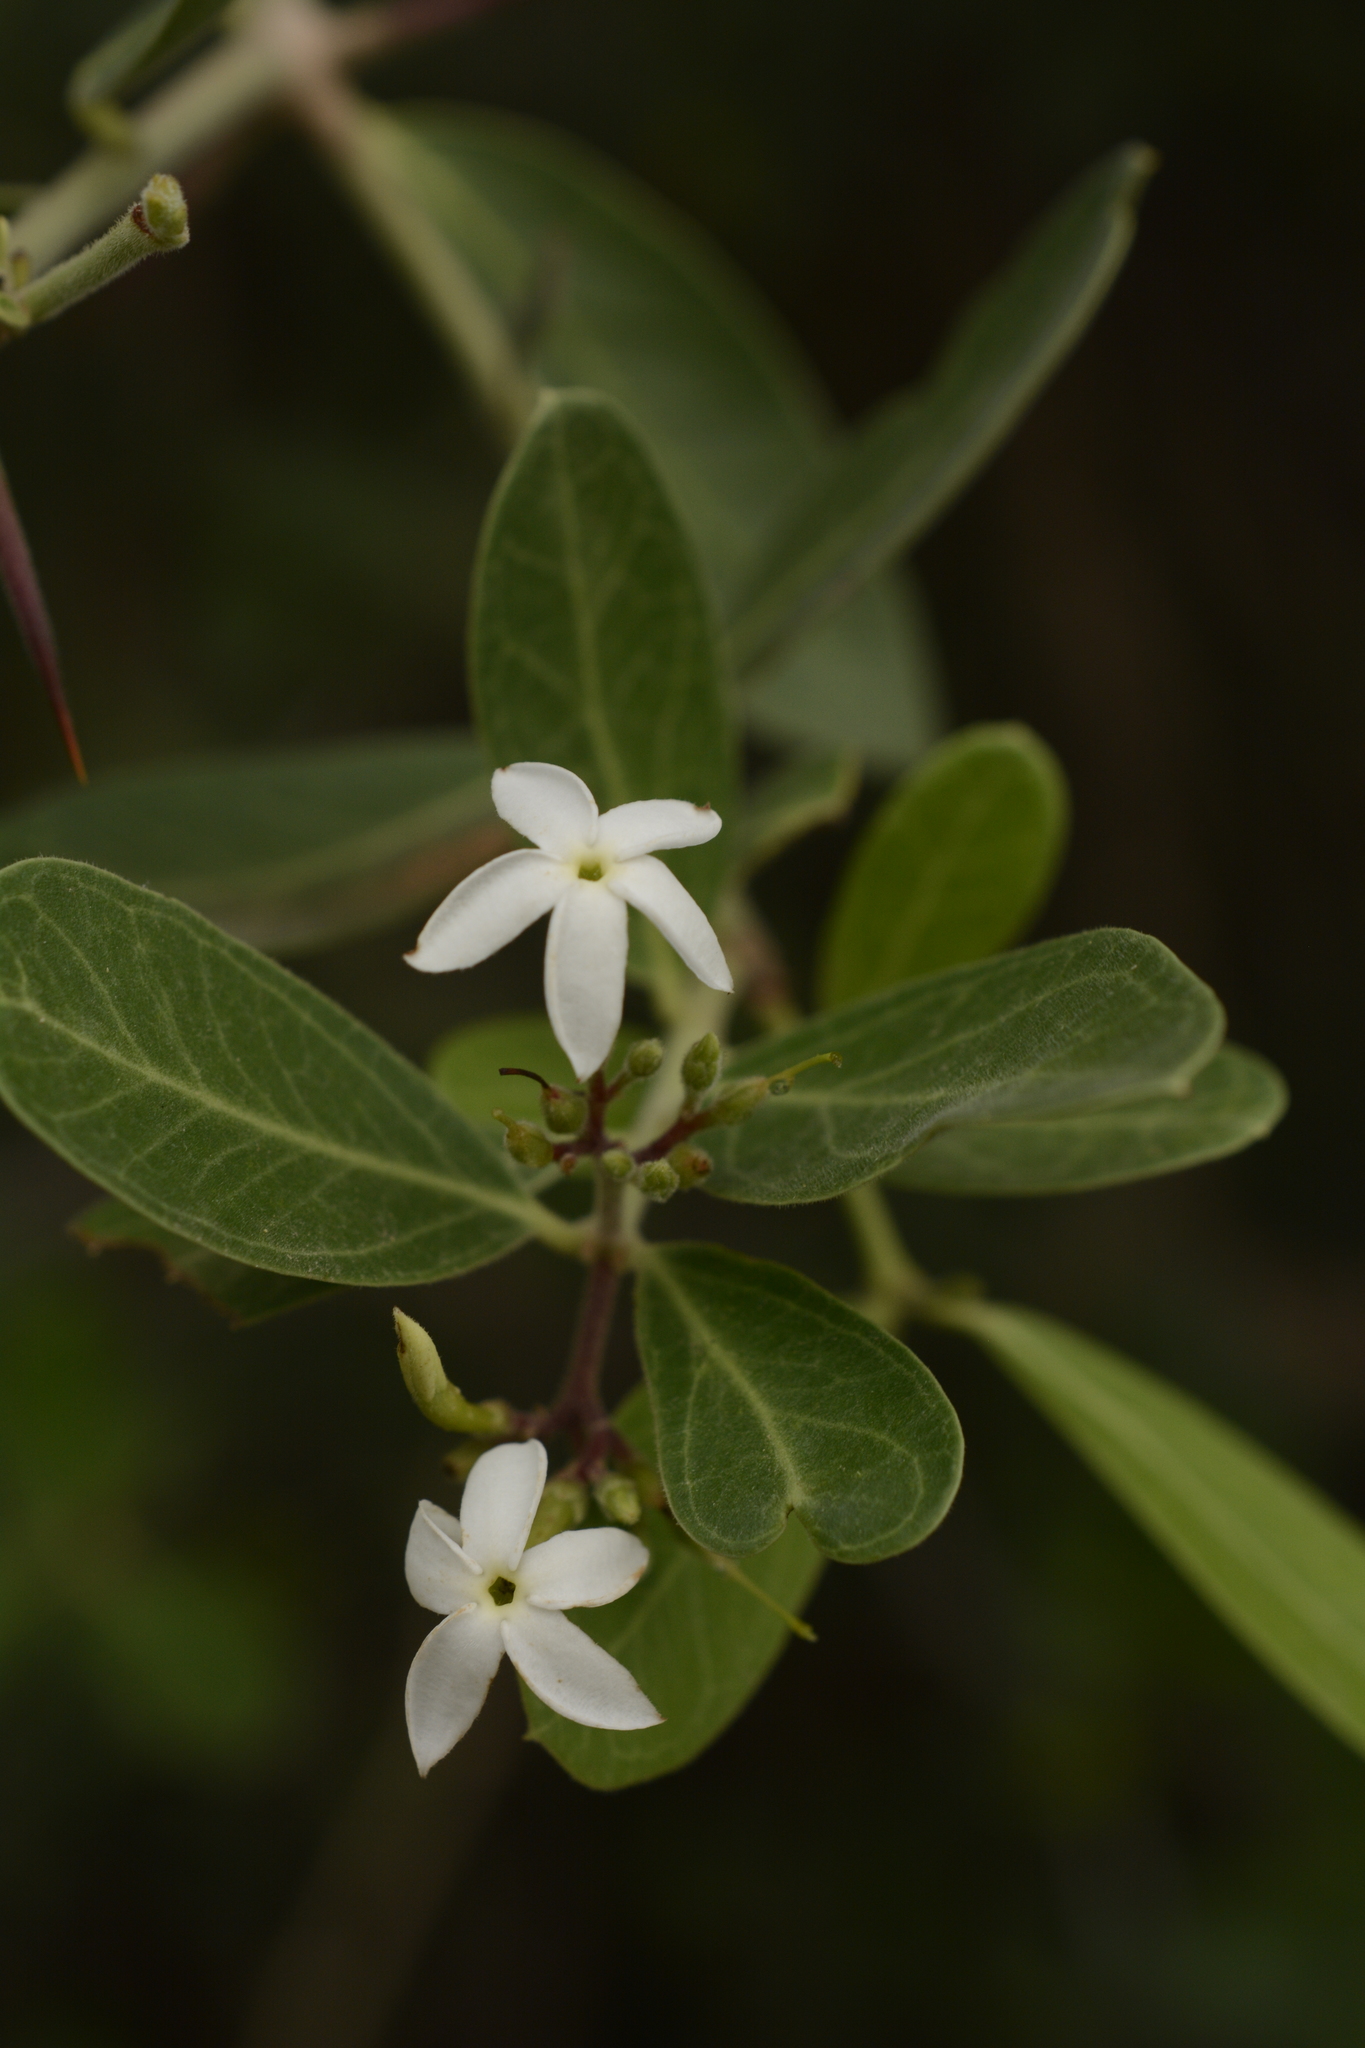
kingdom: Plantae
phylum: Tracheophyta
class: Magnoliopsida
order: Gentianales
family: Apocynaceae
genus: Carissa
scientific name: Carissa spinarum
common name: Egyptian carissa
